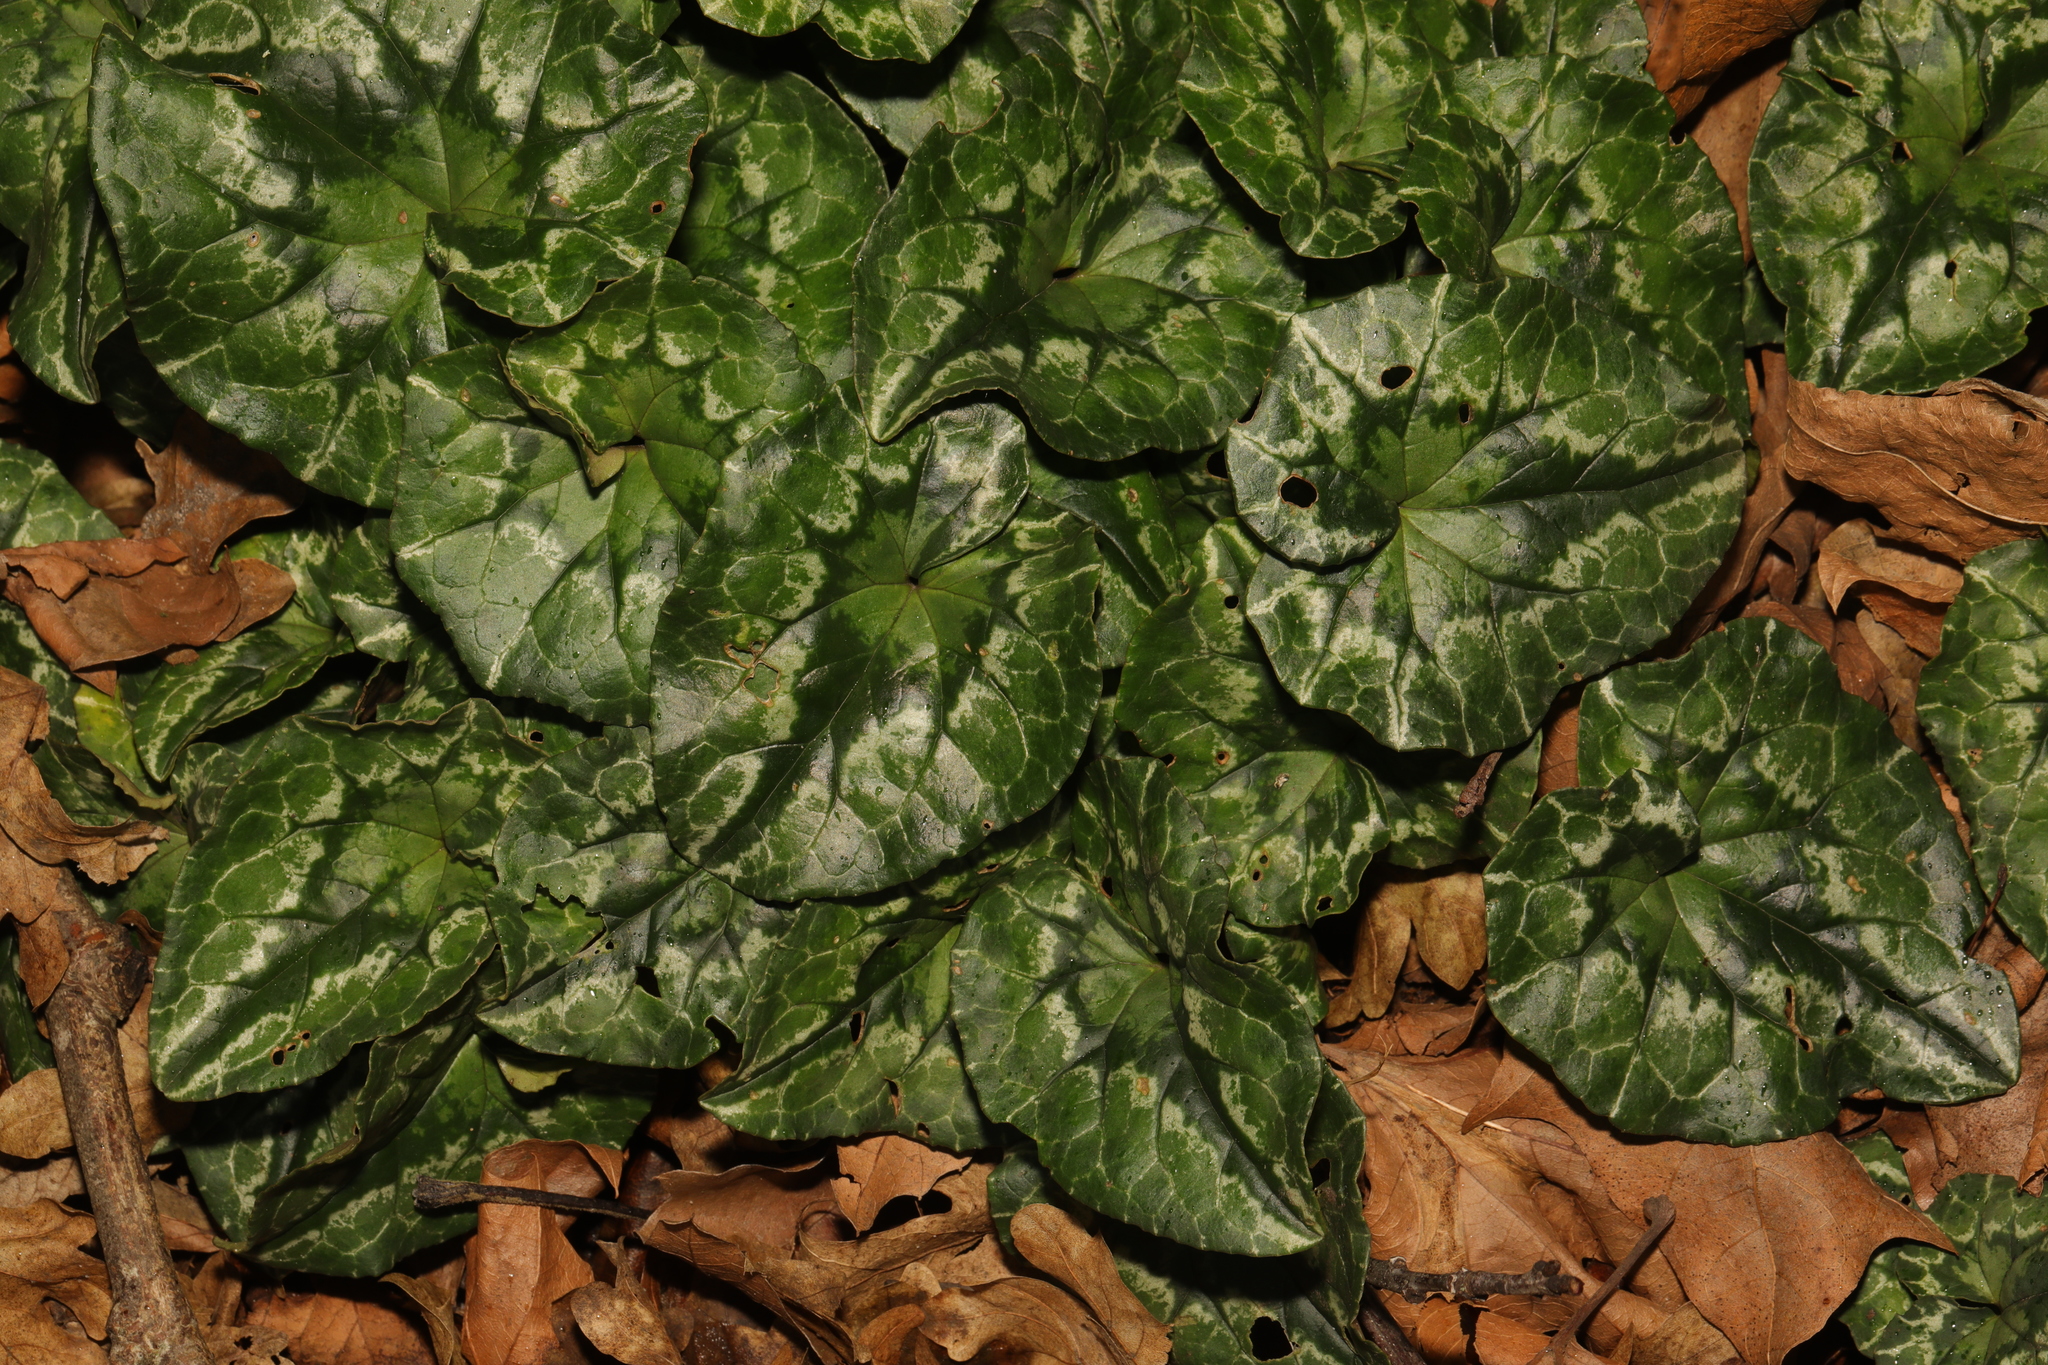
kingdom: Plantae
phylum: Tracheophyta
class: Magnoliopsida
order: Ericales
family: Primulaceae
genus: Cyclamen
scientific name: Cyclamen hederifolium
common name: Sowbread
